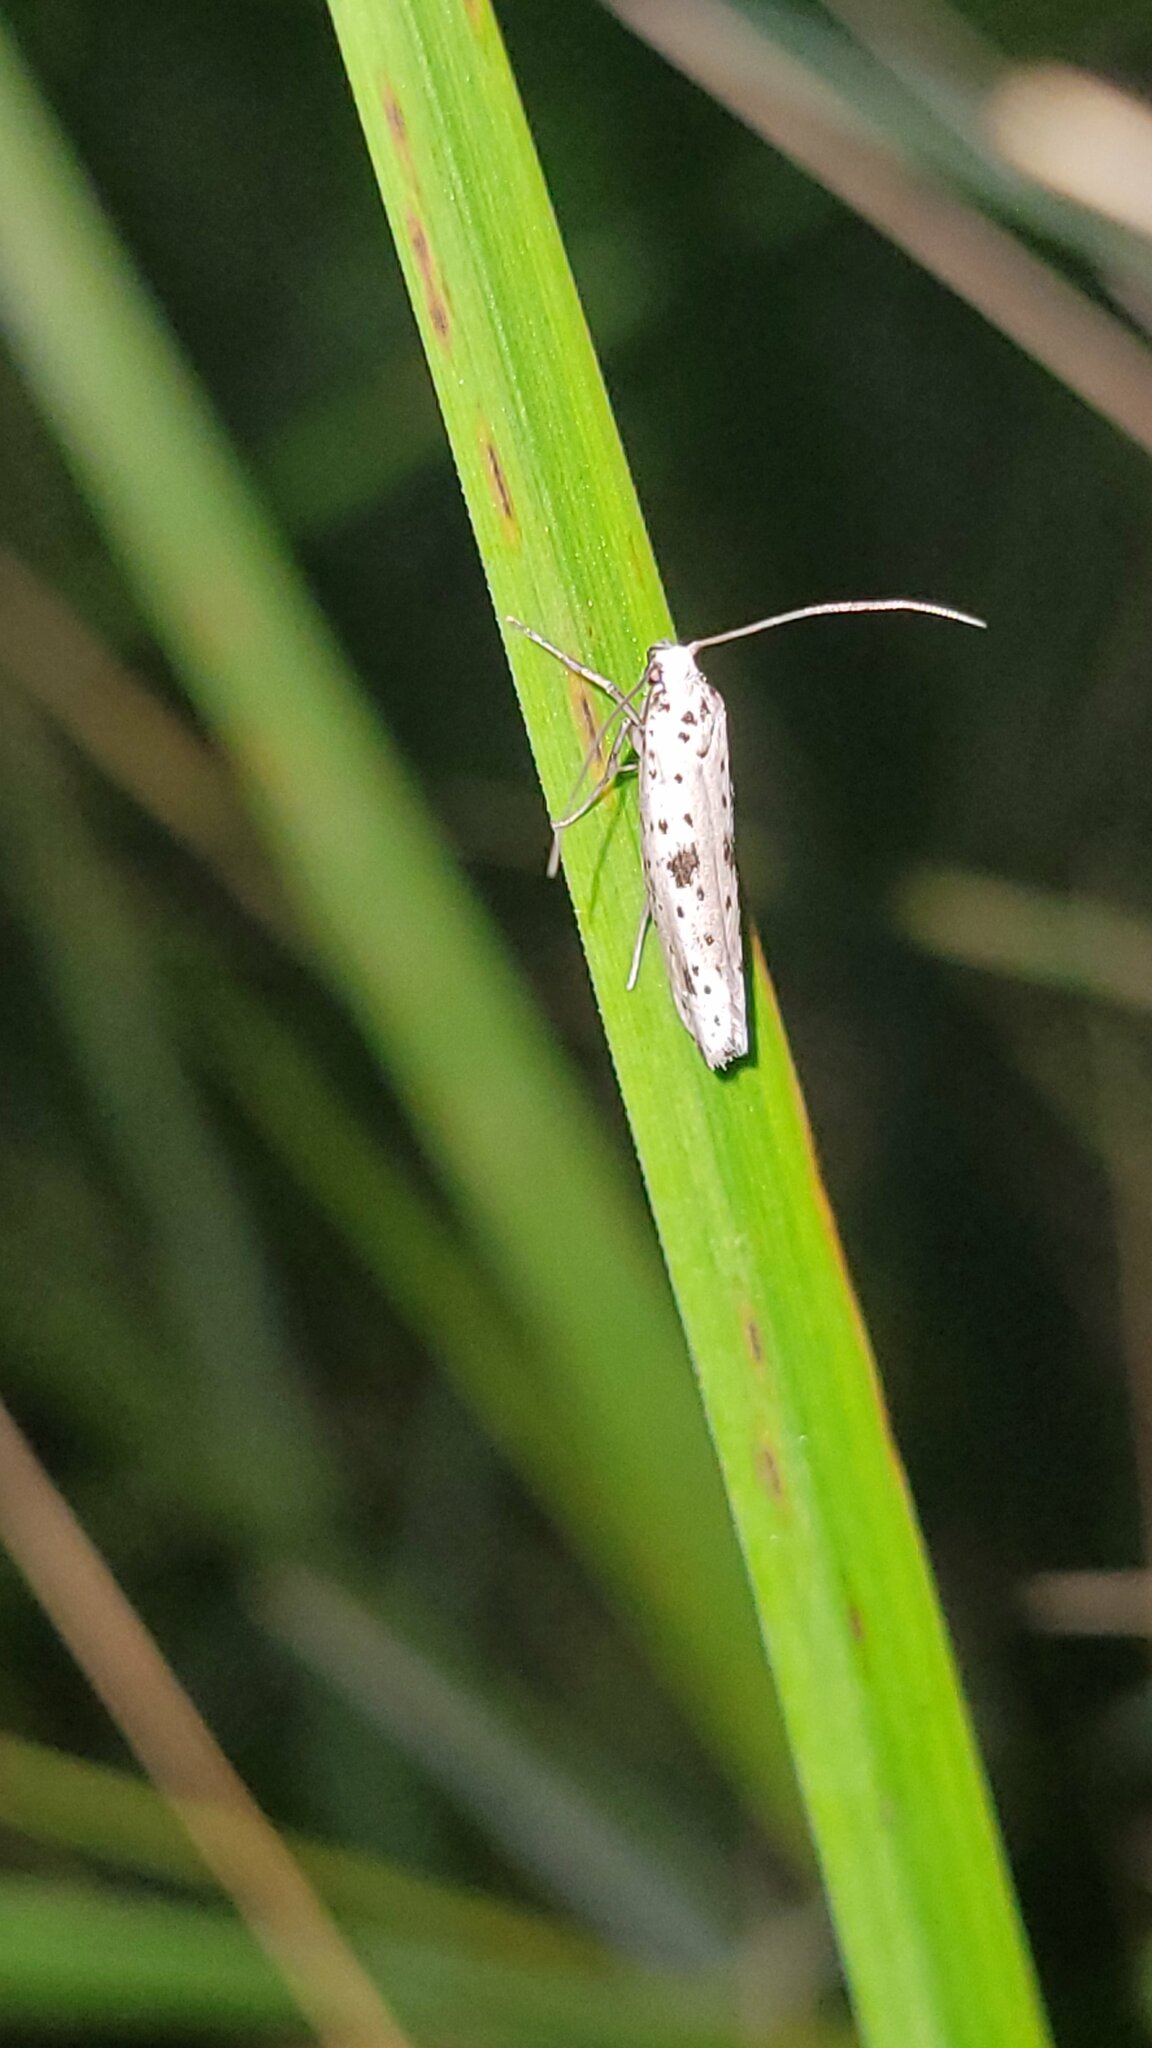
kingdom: Animalia
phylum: Arthropoda
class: Insecta
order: Lepidoptera
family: Yponomeutidae
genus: Yponomeuta
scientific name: Yponomeuta plumbella
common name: Black-tipped ermine
